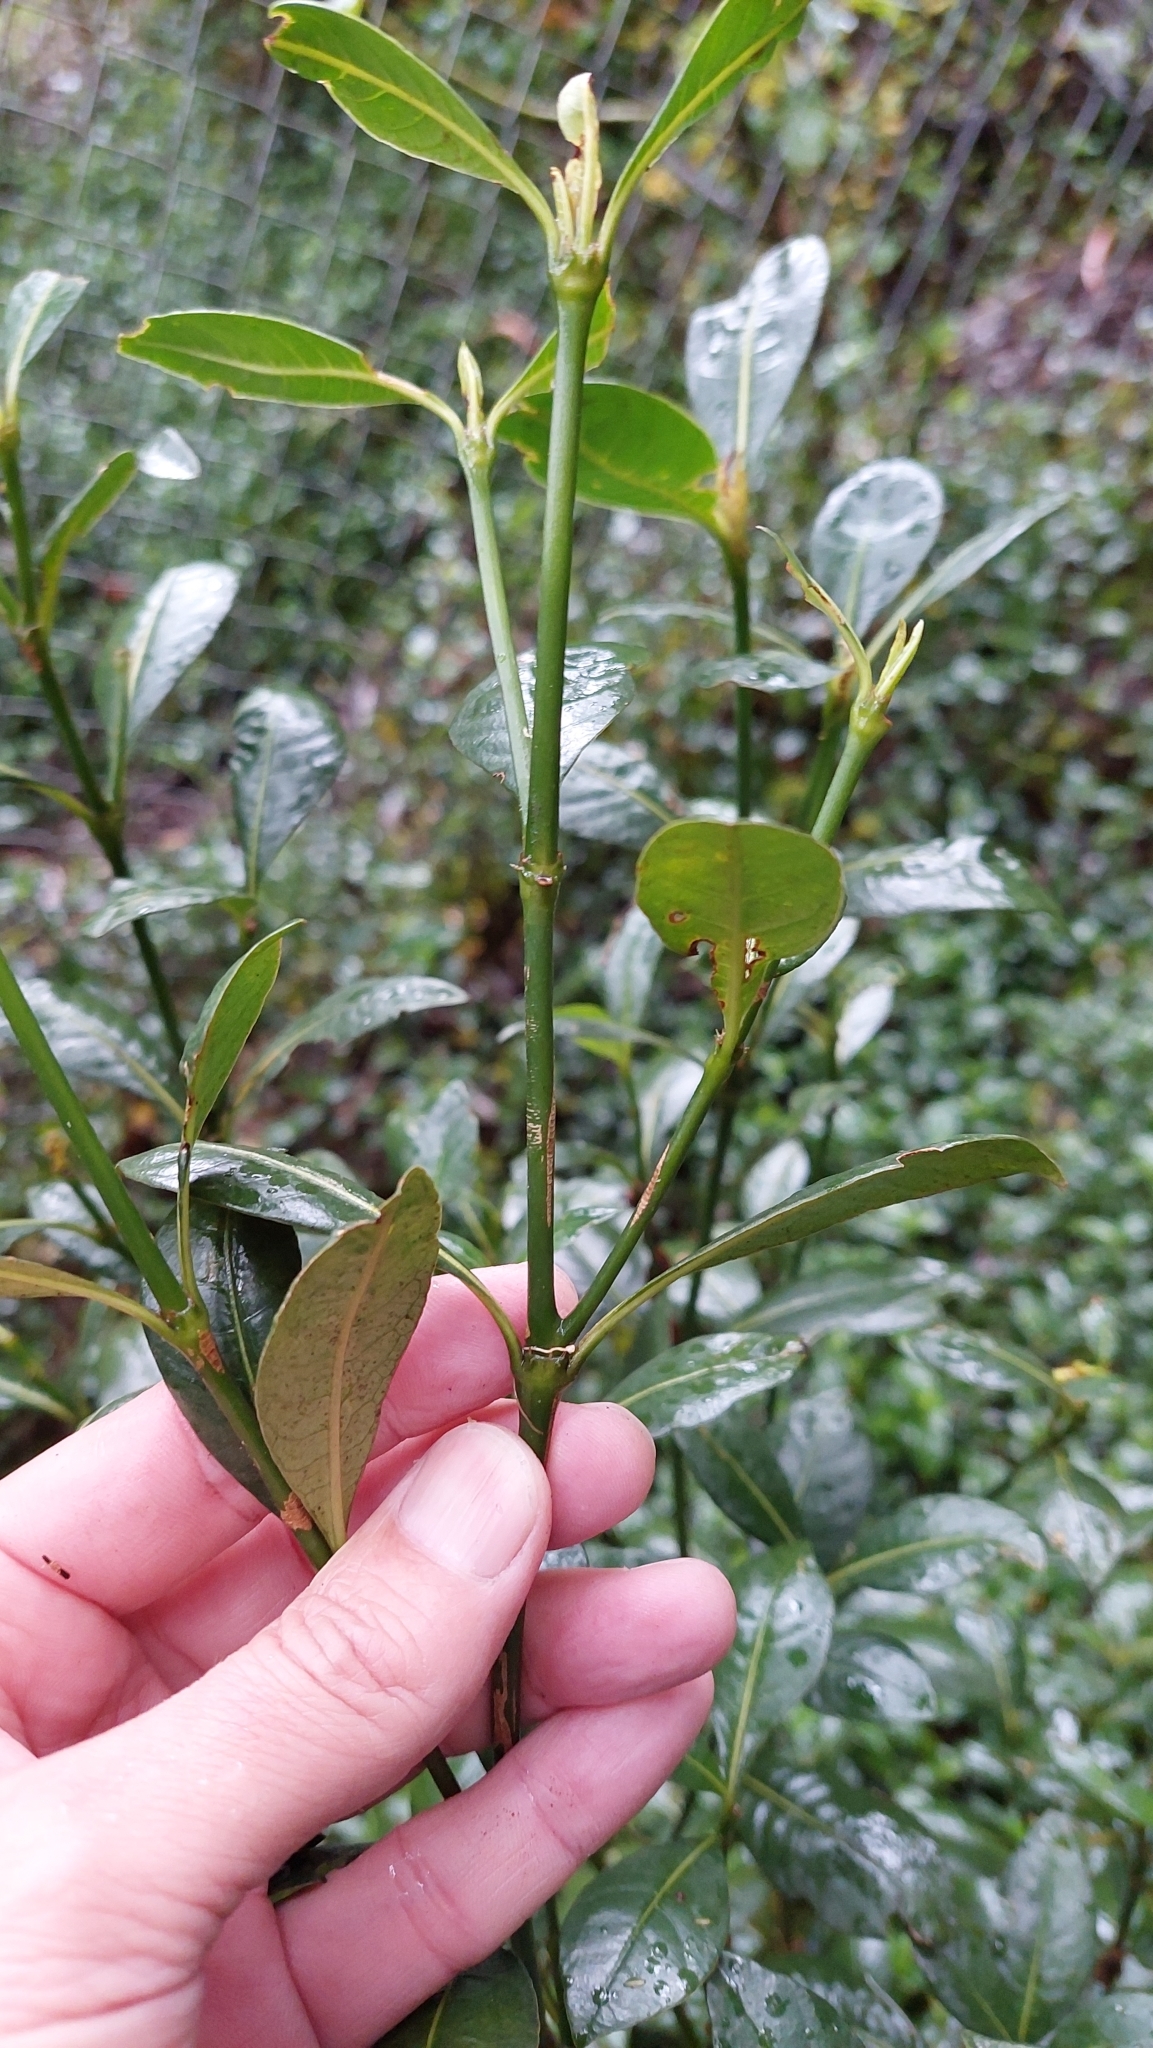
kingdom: Plantae
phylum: Tracheophyta
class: Magnoliopsida
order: Gentianales
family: Rubiaceae
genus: Palicourea
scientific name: Palicourea boqueronensis
